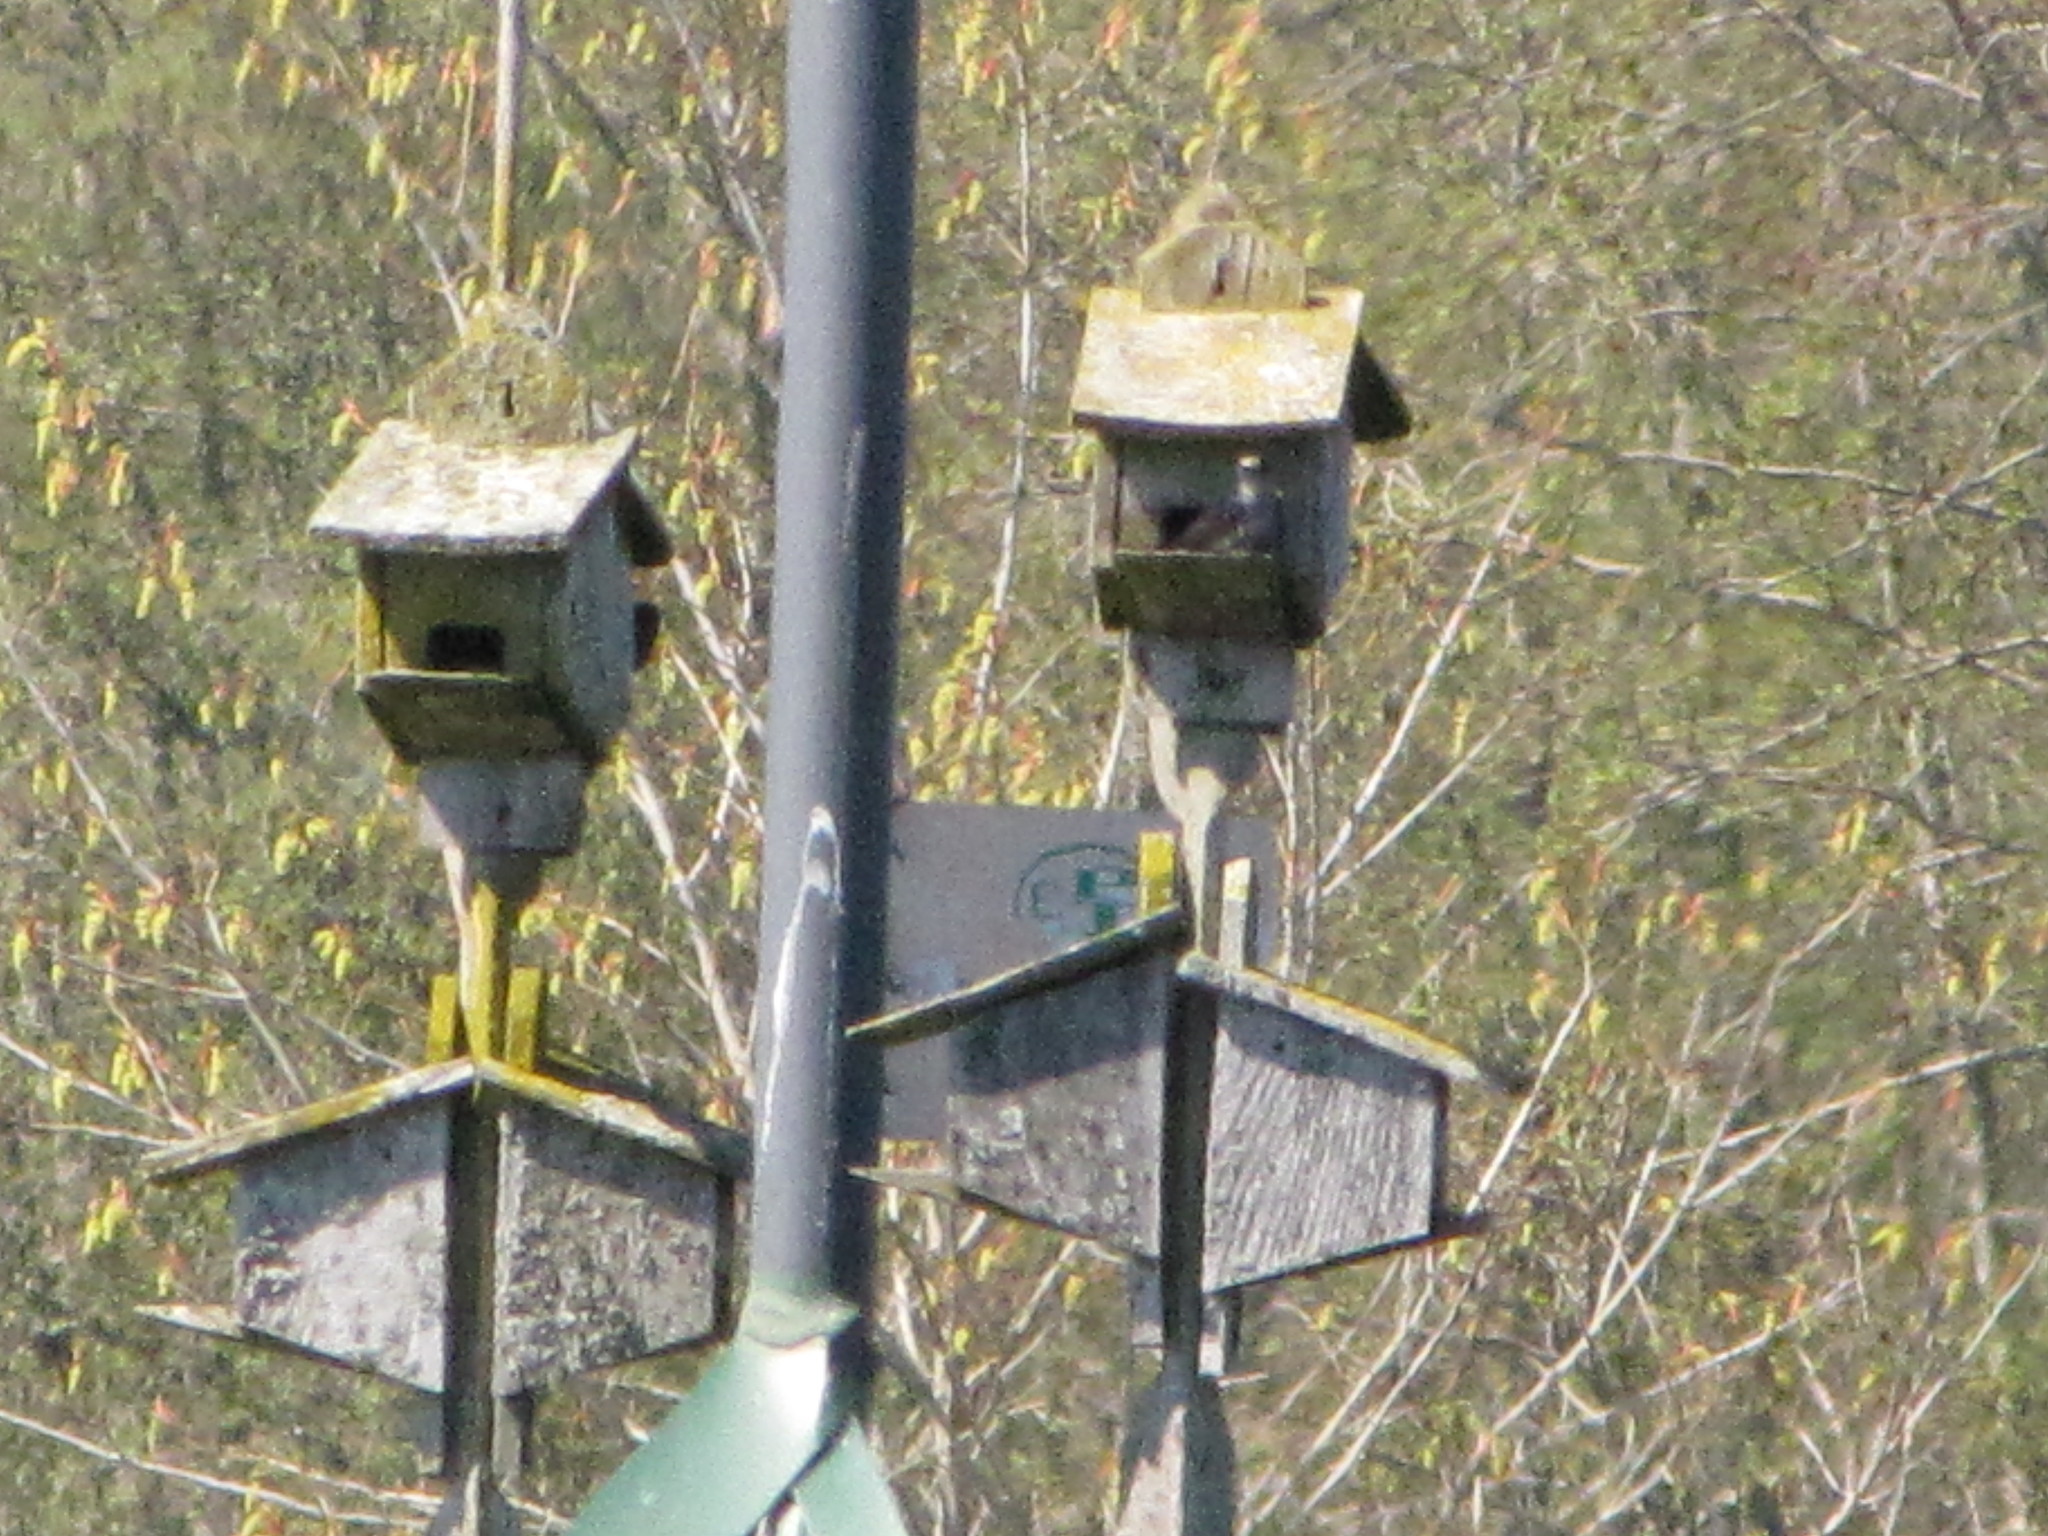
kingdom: Animalia
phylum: Chordata
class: Aves
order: Passeriformes
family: Hirundinidae
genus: Progne
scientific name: Progne subis
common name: Purple martin
